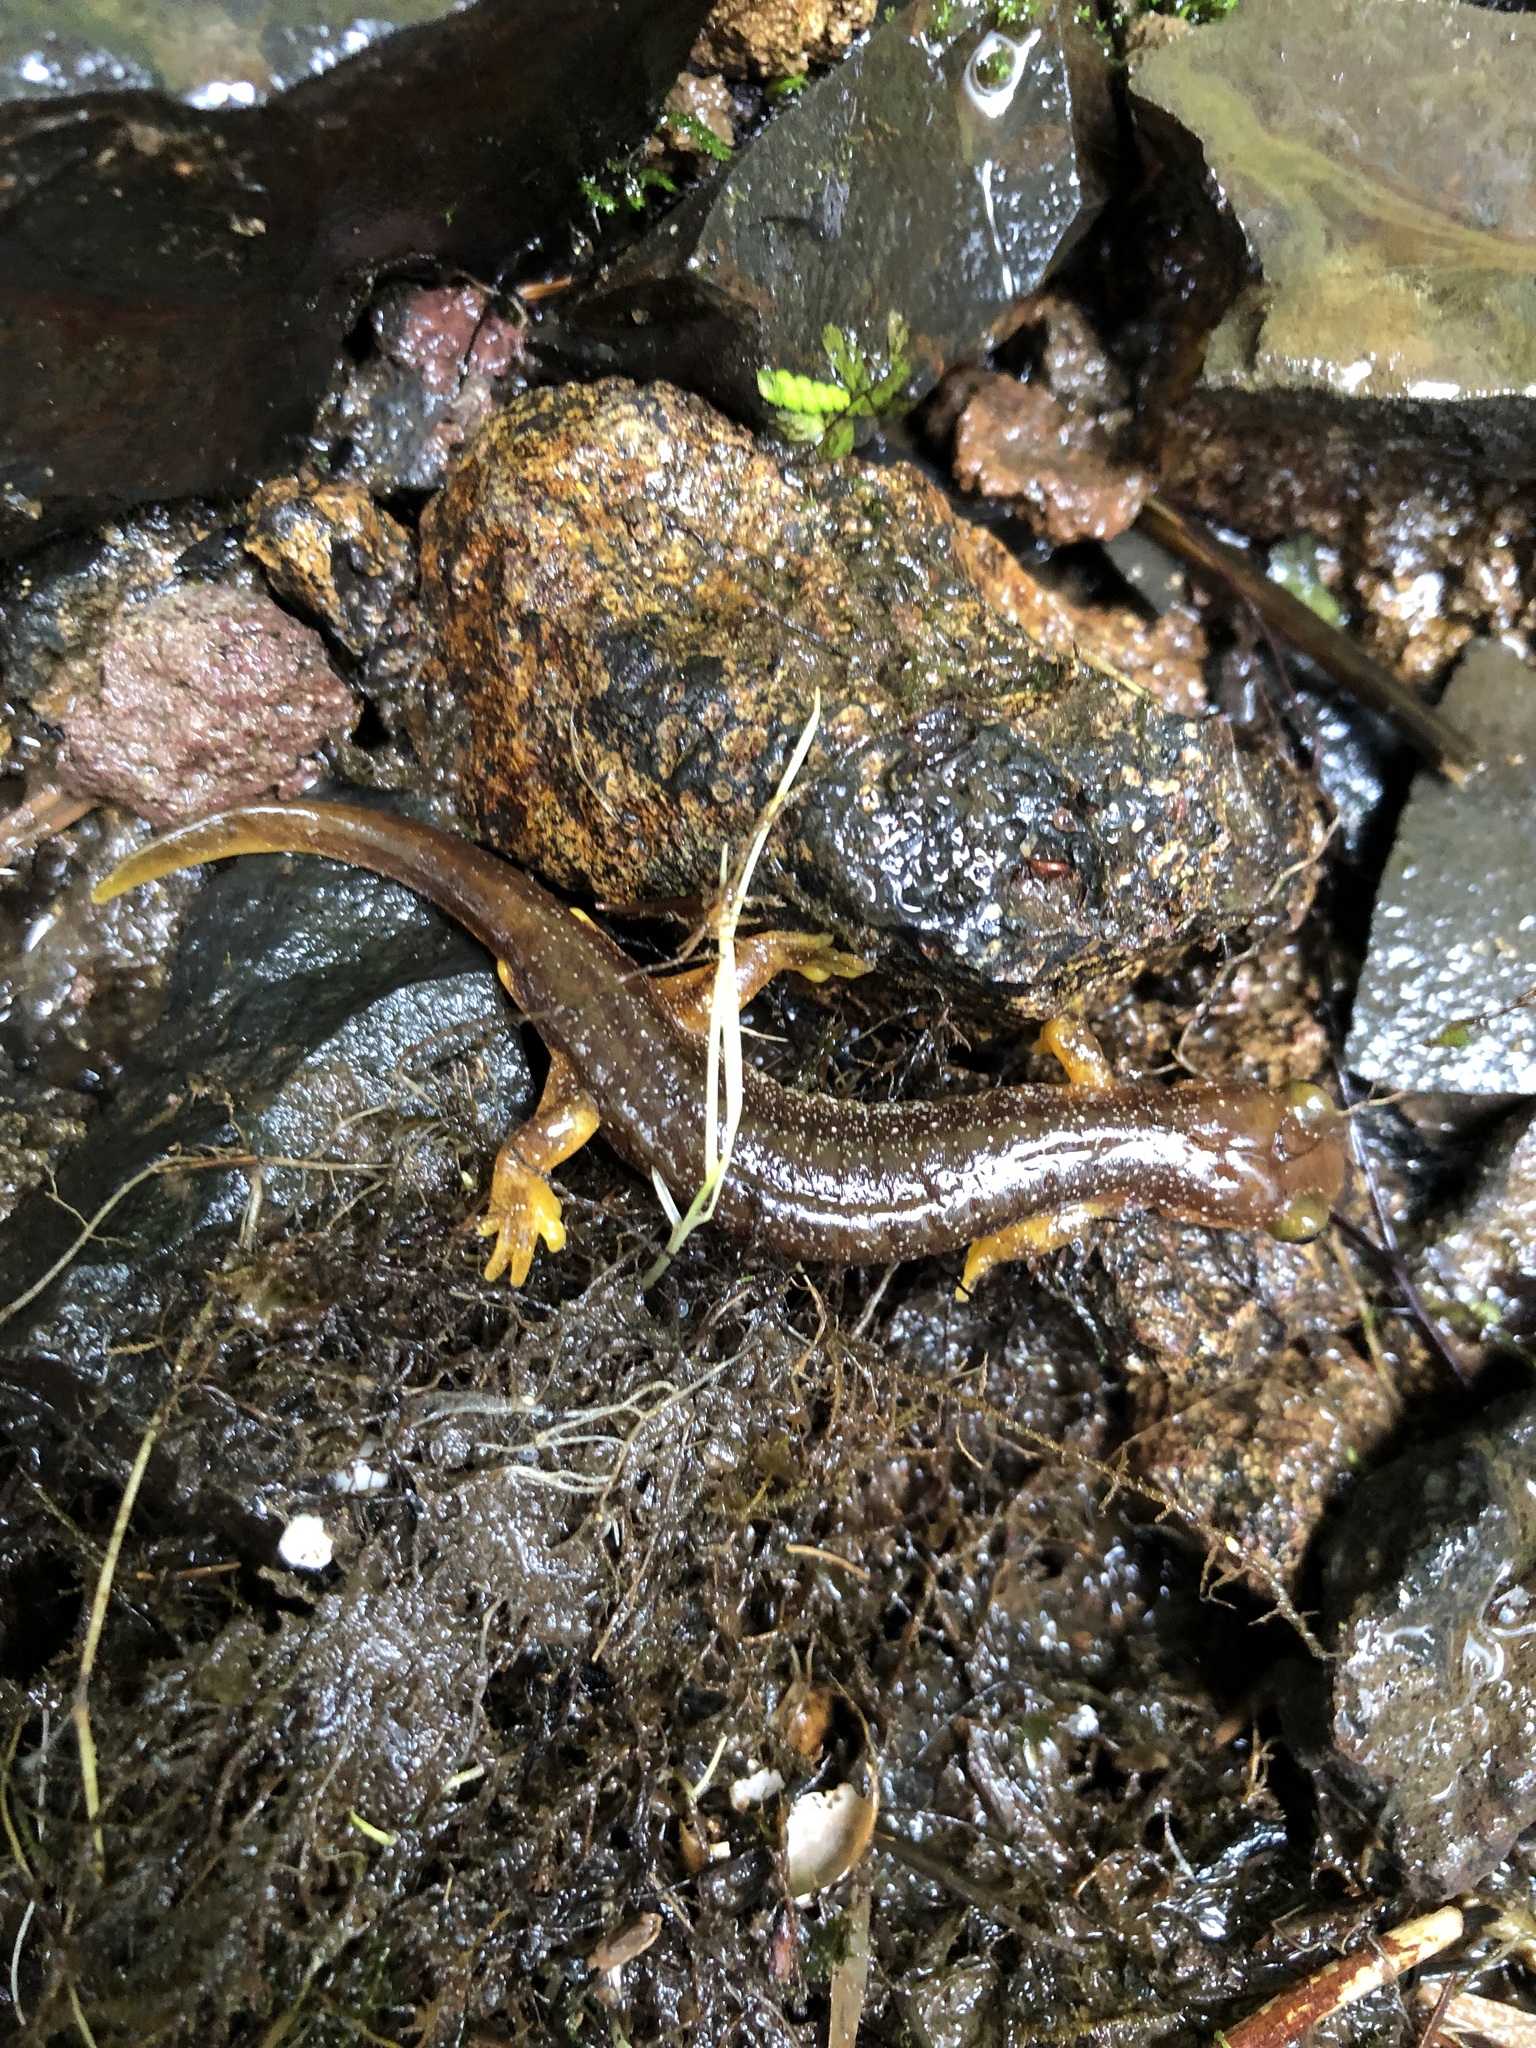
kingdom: Animalia
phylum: Chordata
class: Amphibia
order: Caudata
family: Rhyacotritonidae
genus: Rhyacotriton
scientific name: Rhyacotriton kezeri
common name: Columbia torrent salamander
